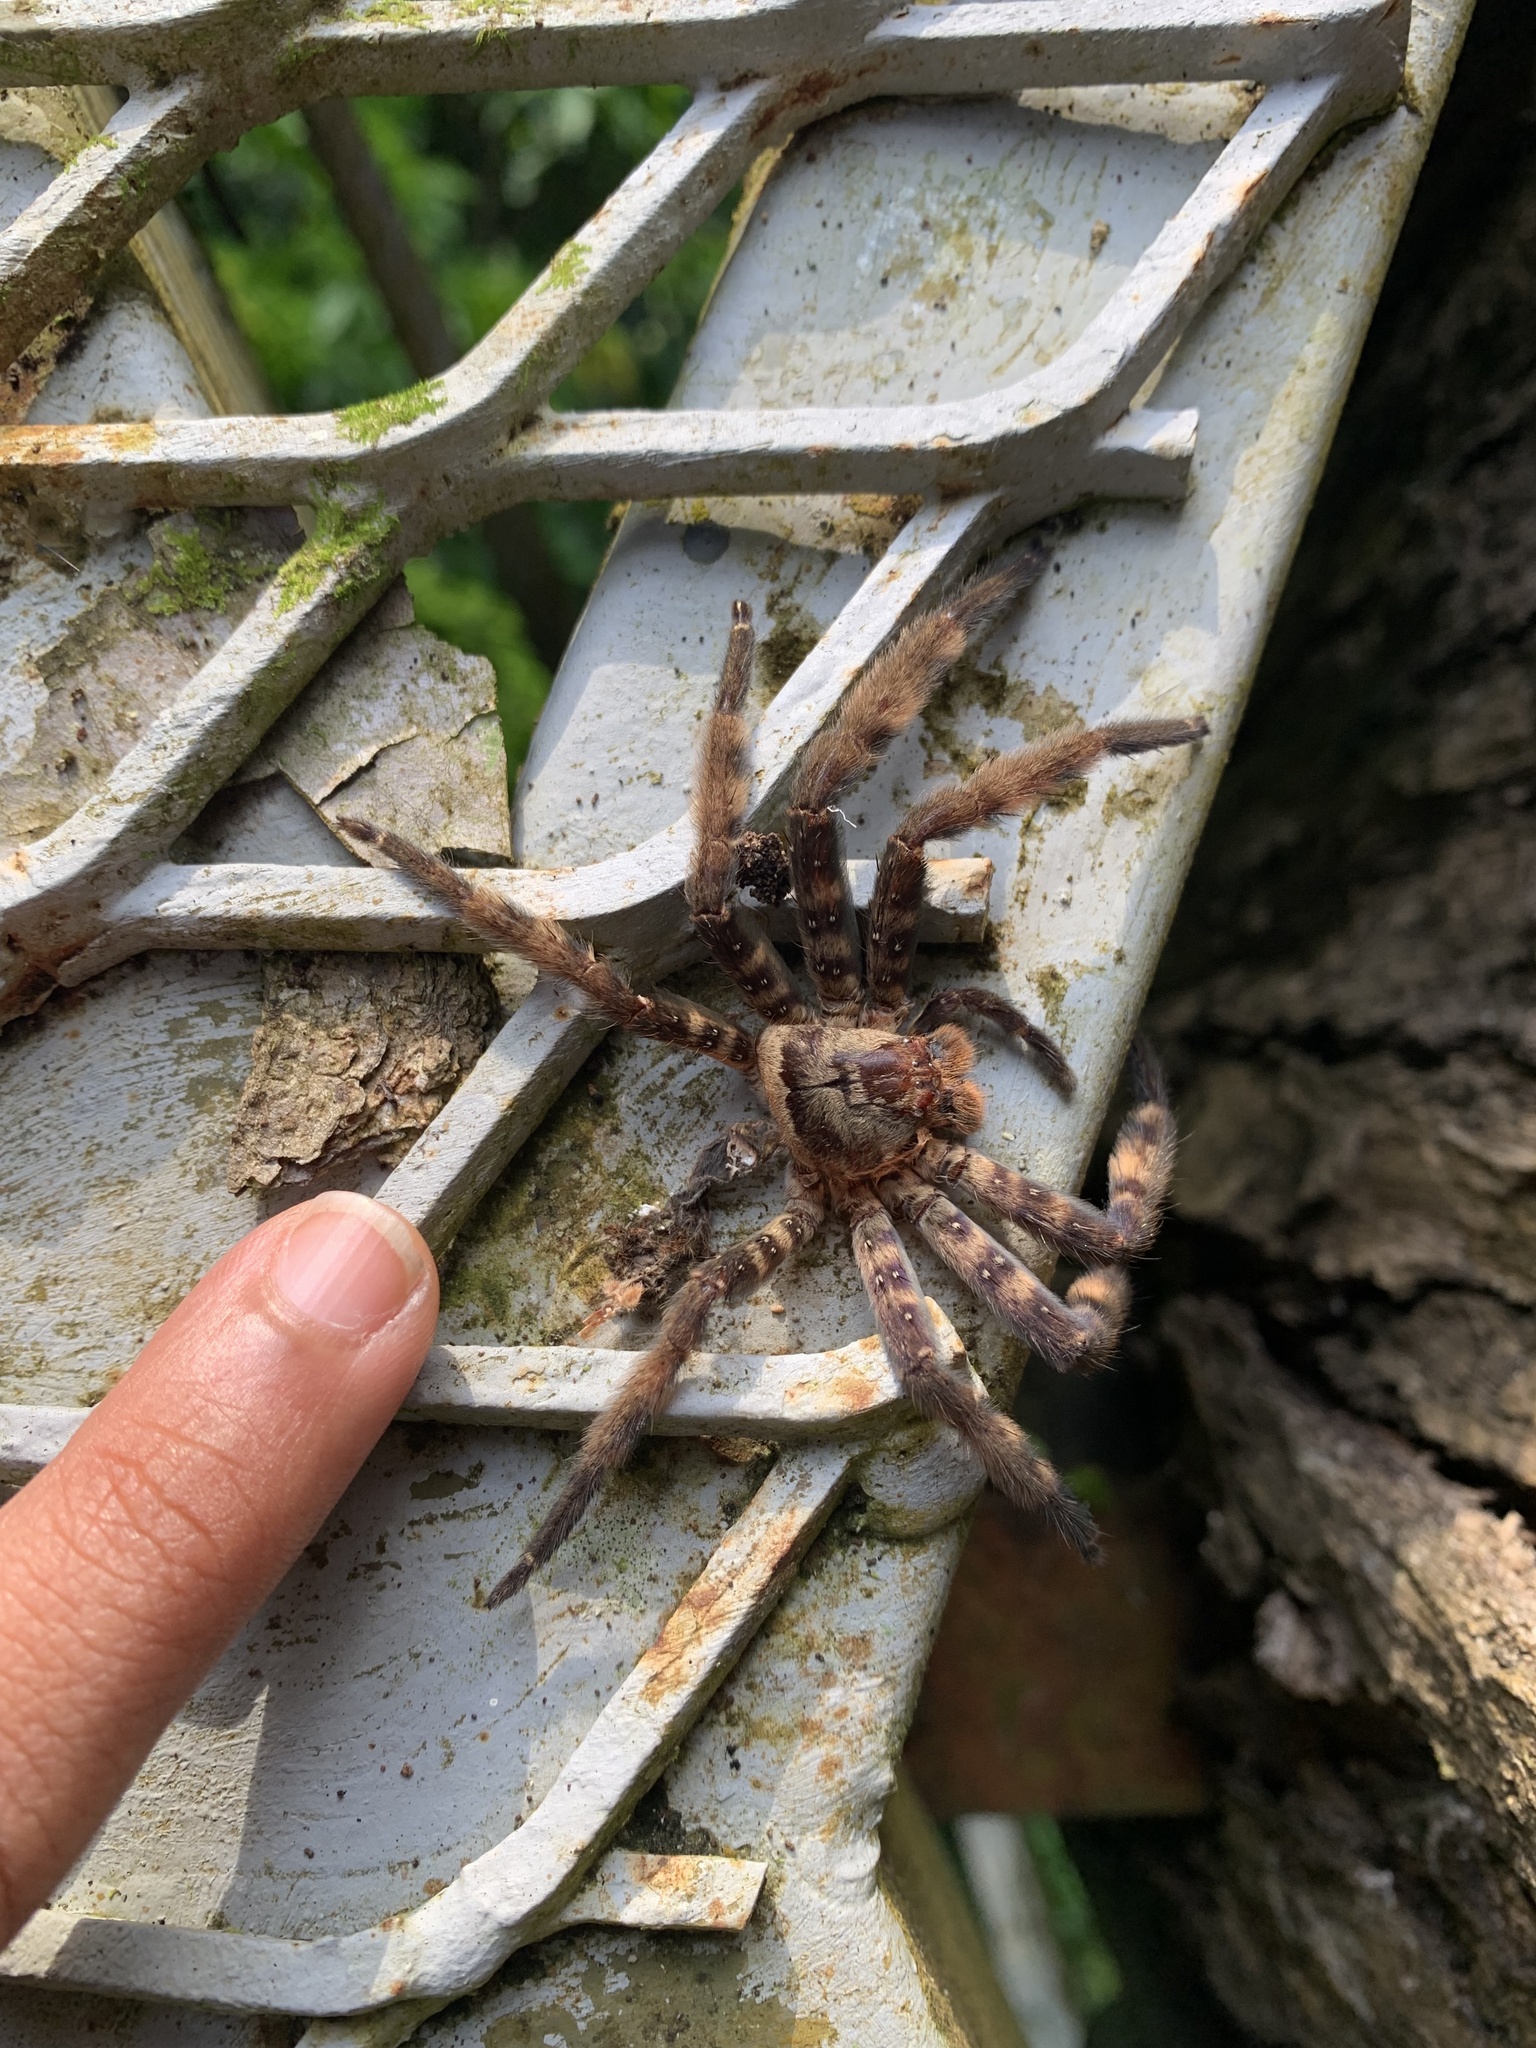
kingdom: Animalia
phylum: Arthropoda
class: Arachnida
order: Araneae
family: Sparassidae
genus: Heteropoda
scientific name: Heteropoda lunula
